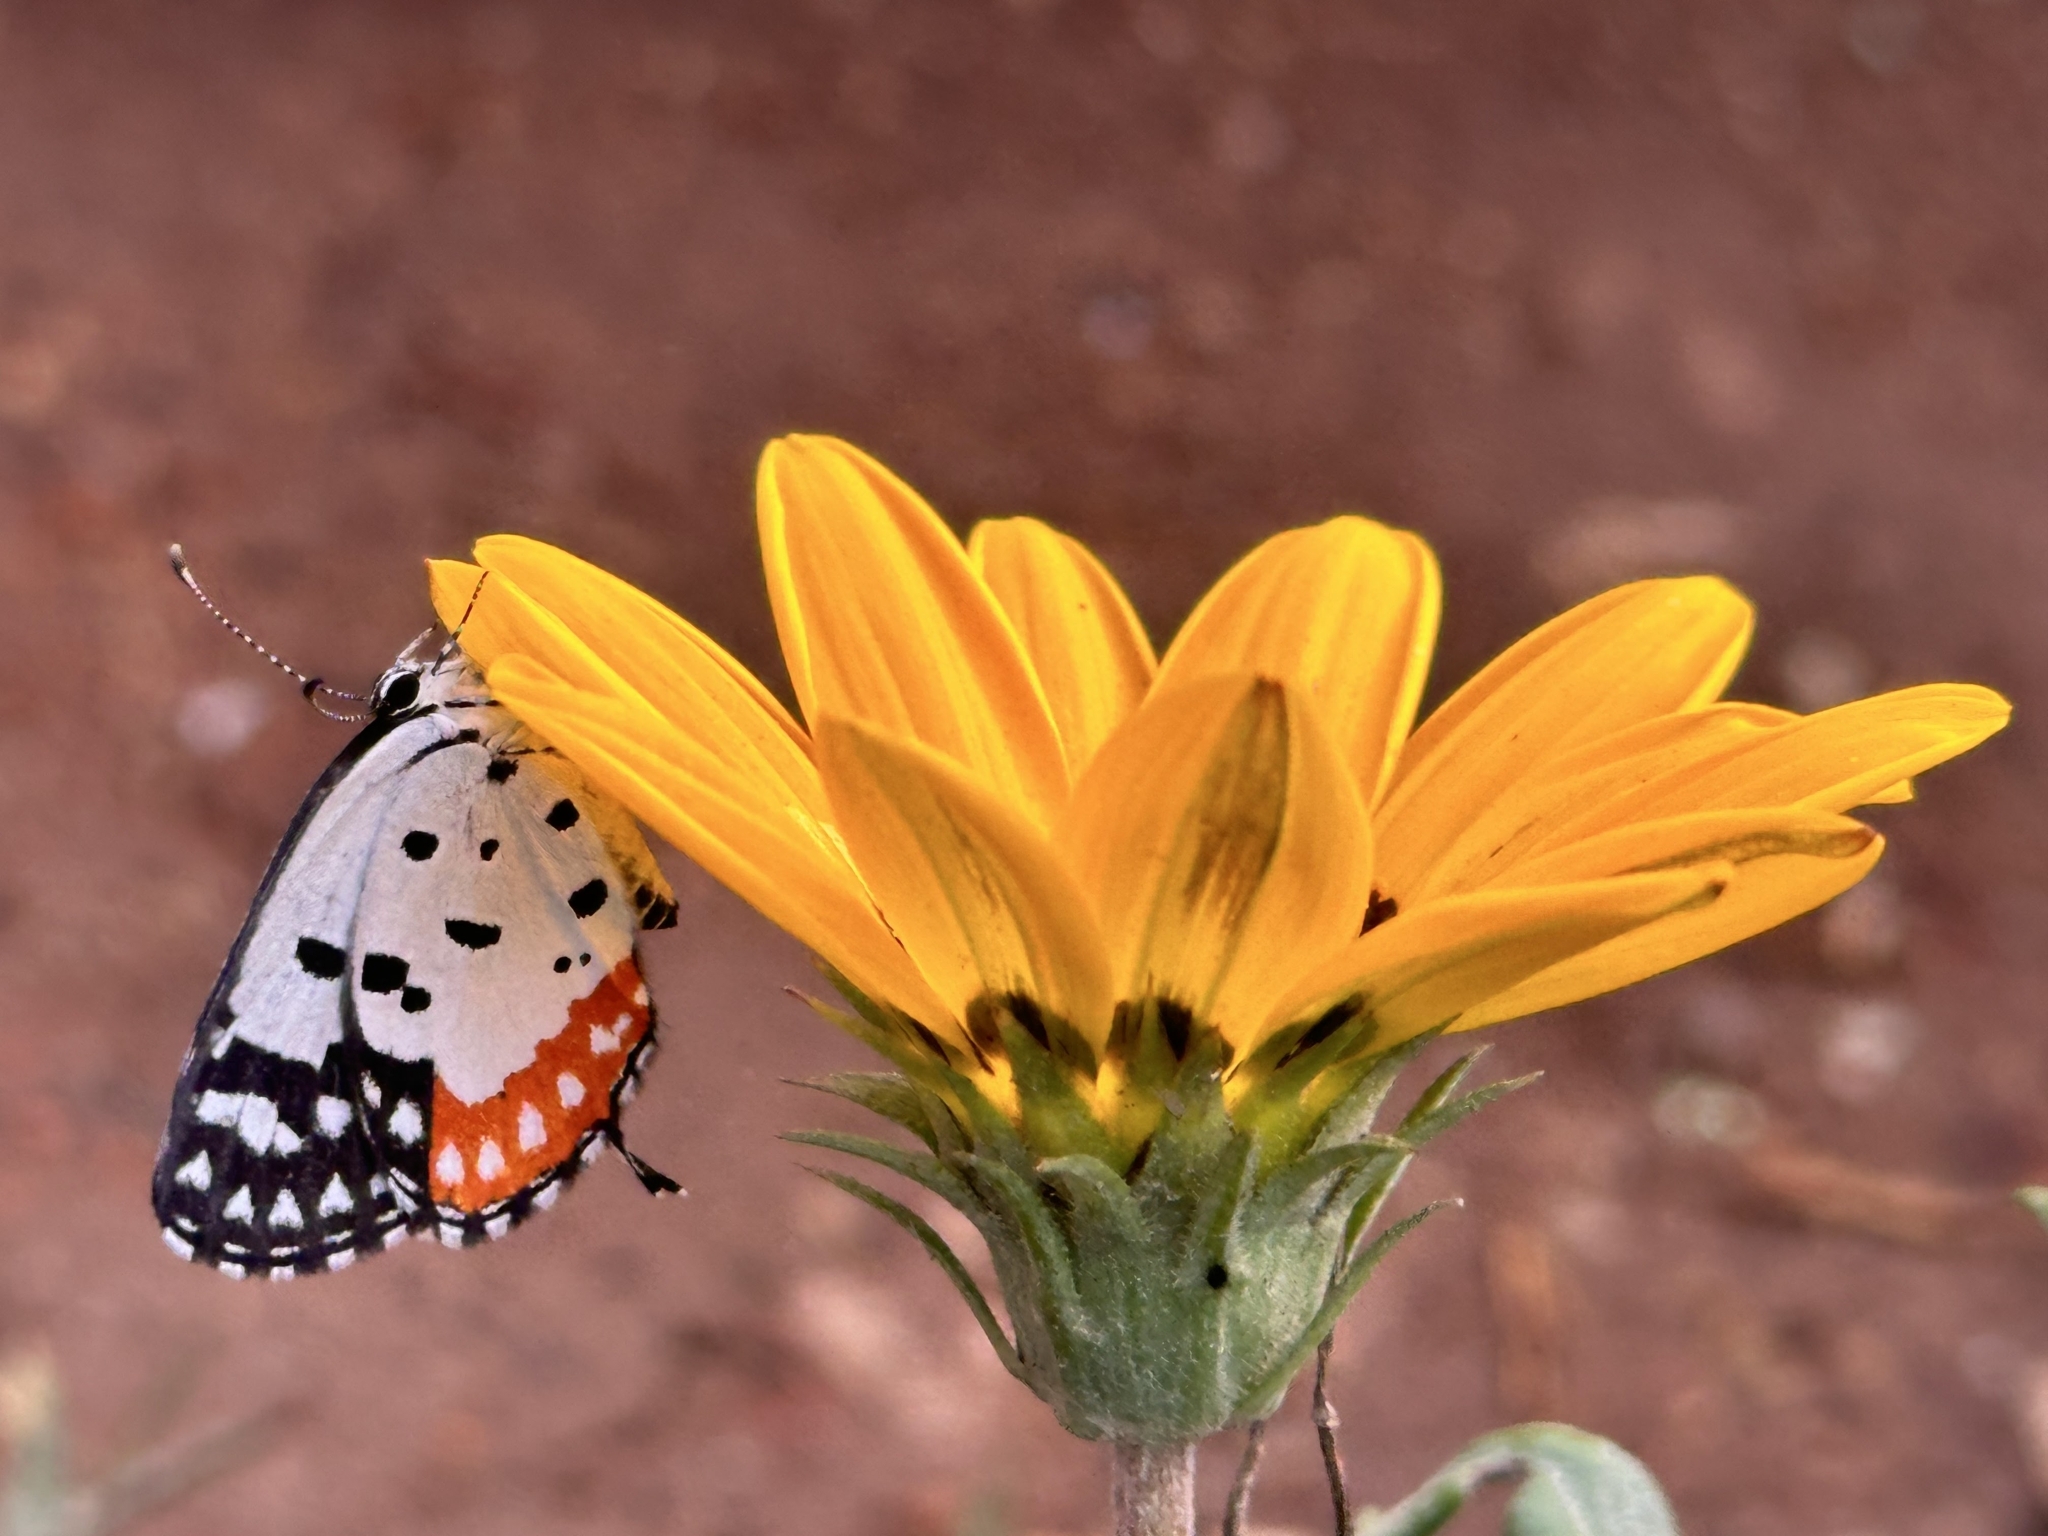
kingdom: Animalia
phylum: Arthropoda
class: Insecta
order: Lepidoptera
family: Lycaenidae
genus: Talicada
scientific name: Talicada nyseus
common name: Red pierrot
